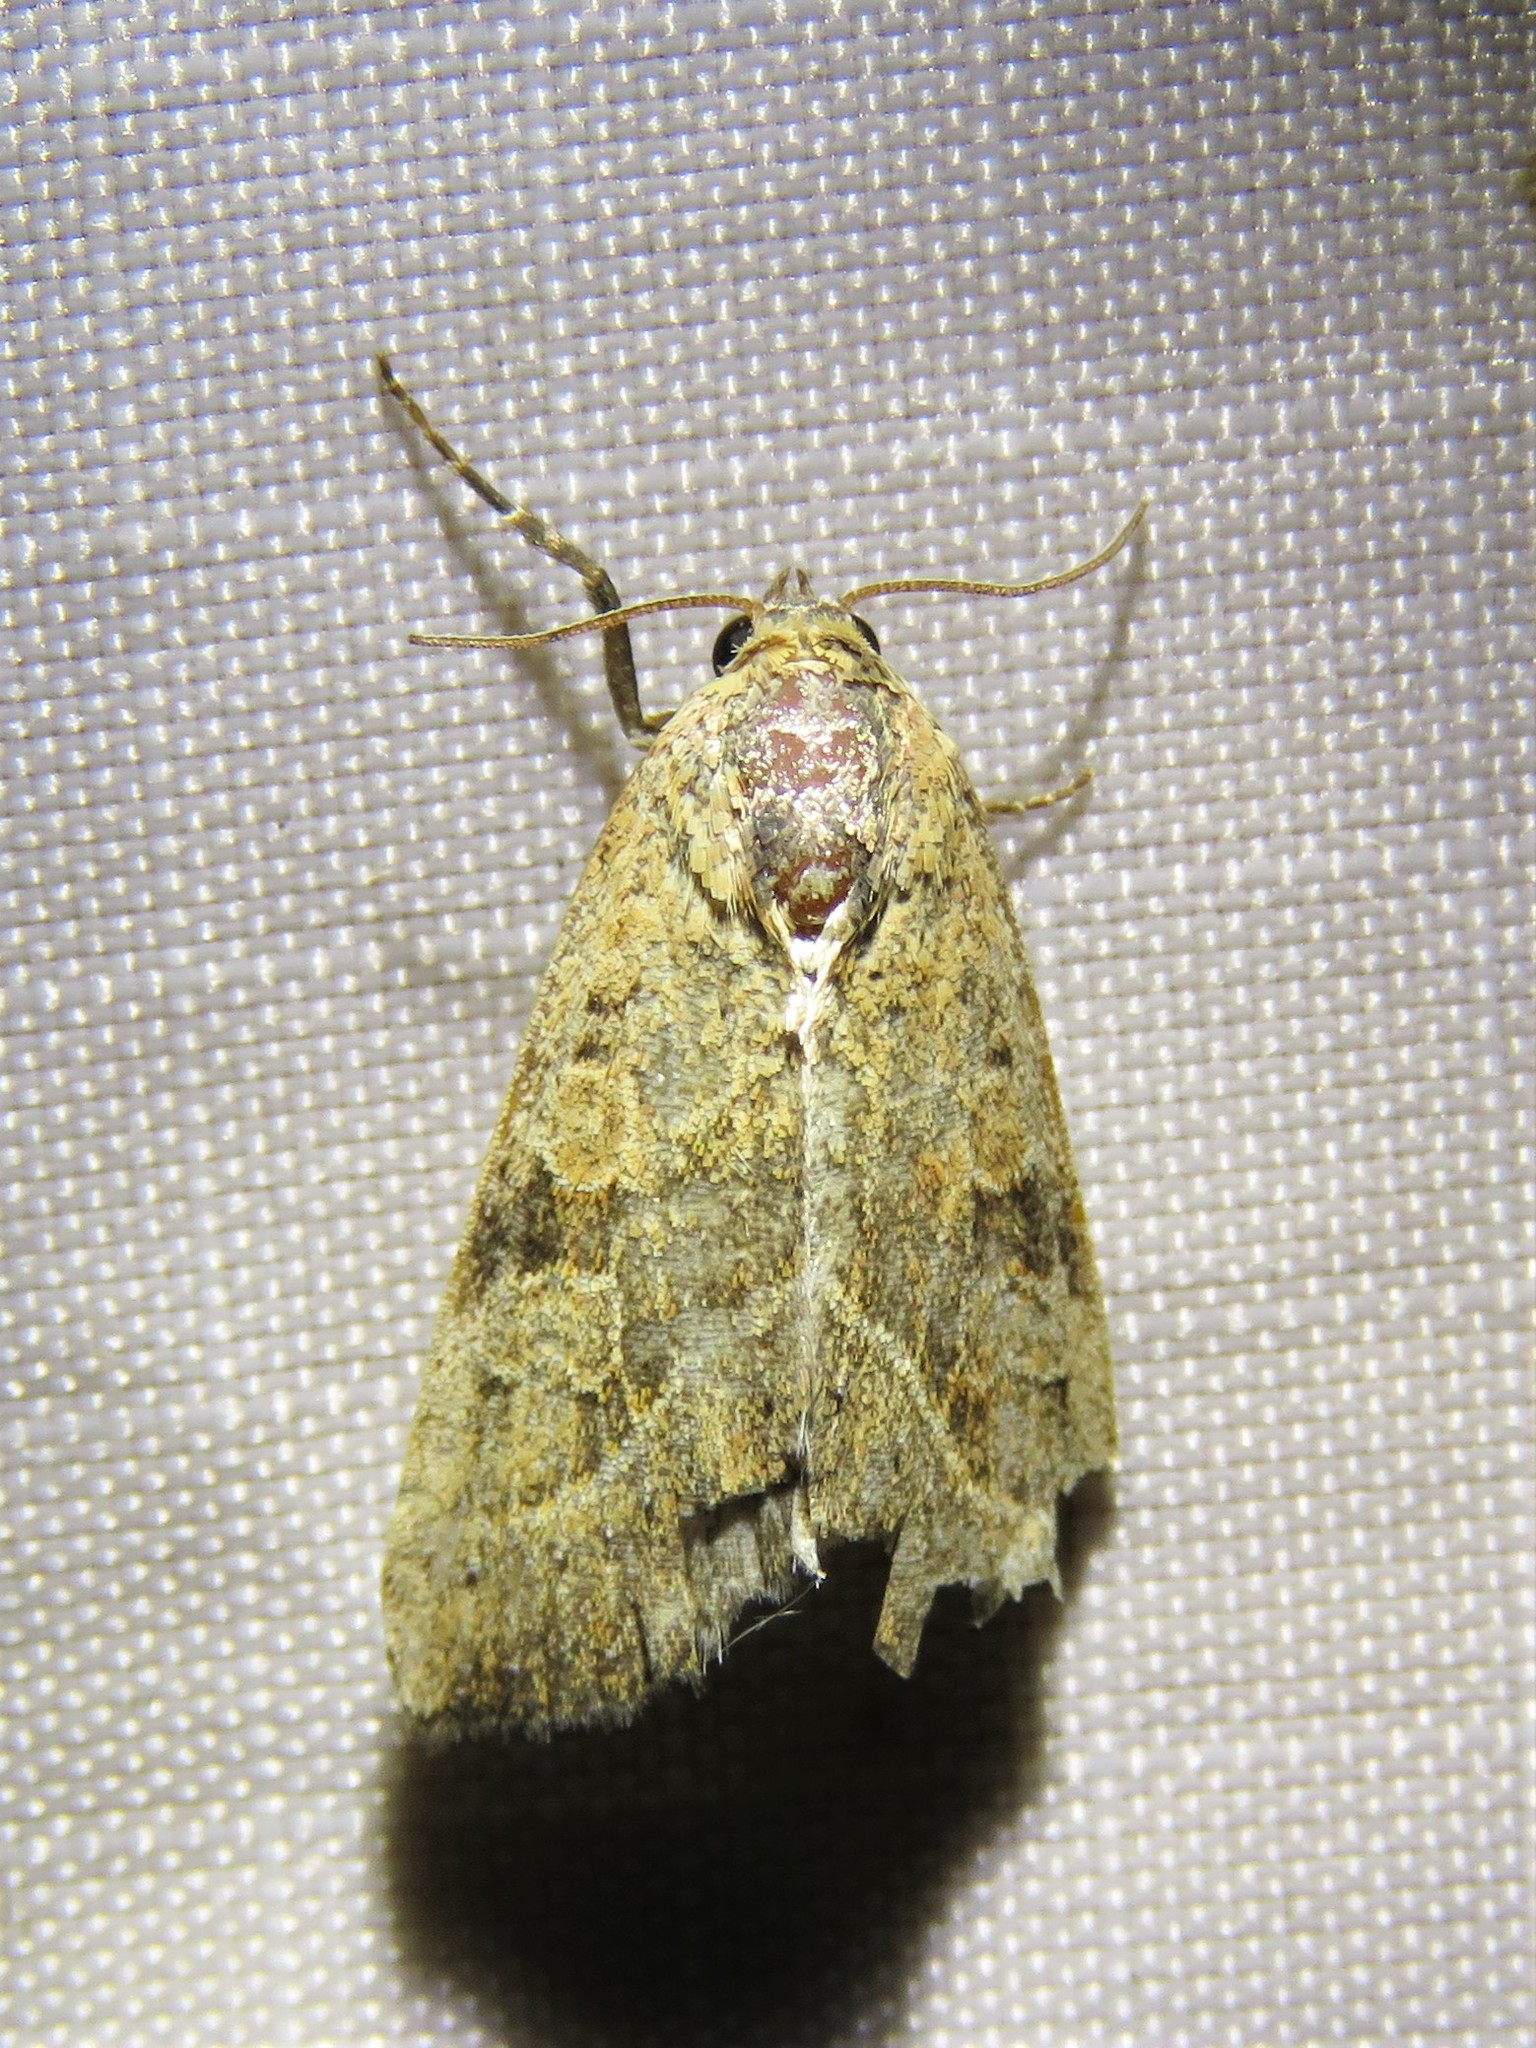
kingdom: Animalia
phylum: Arthropoda
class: Insecta
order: Lepidoptera
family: Noctuidae
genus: Galgula
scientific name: Galgula partita
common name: Wedgeling
